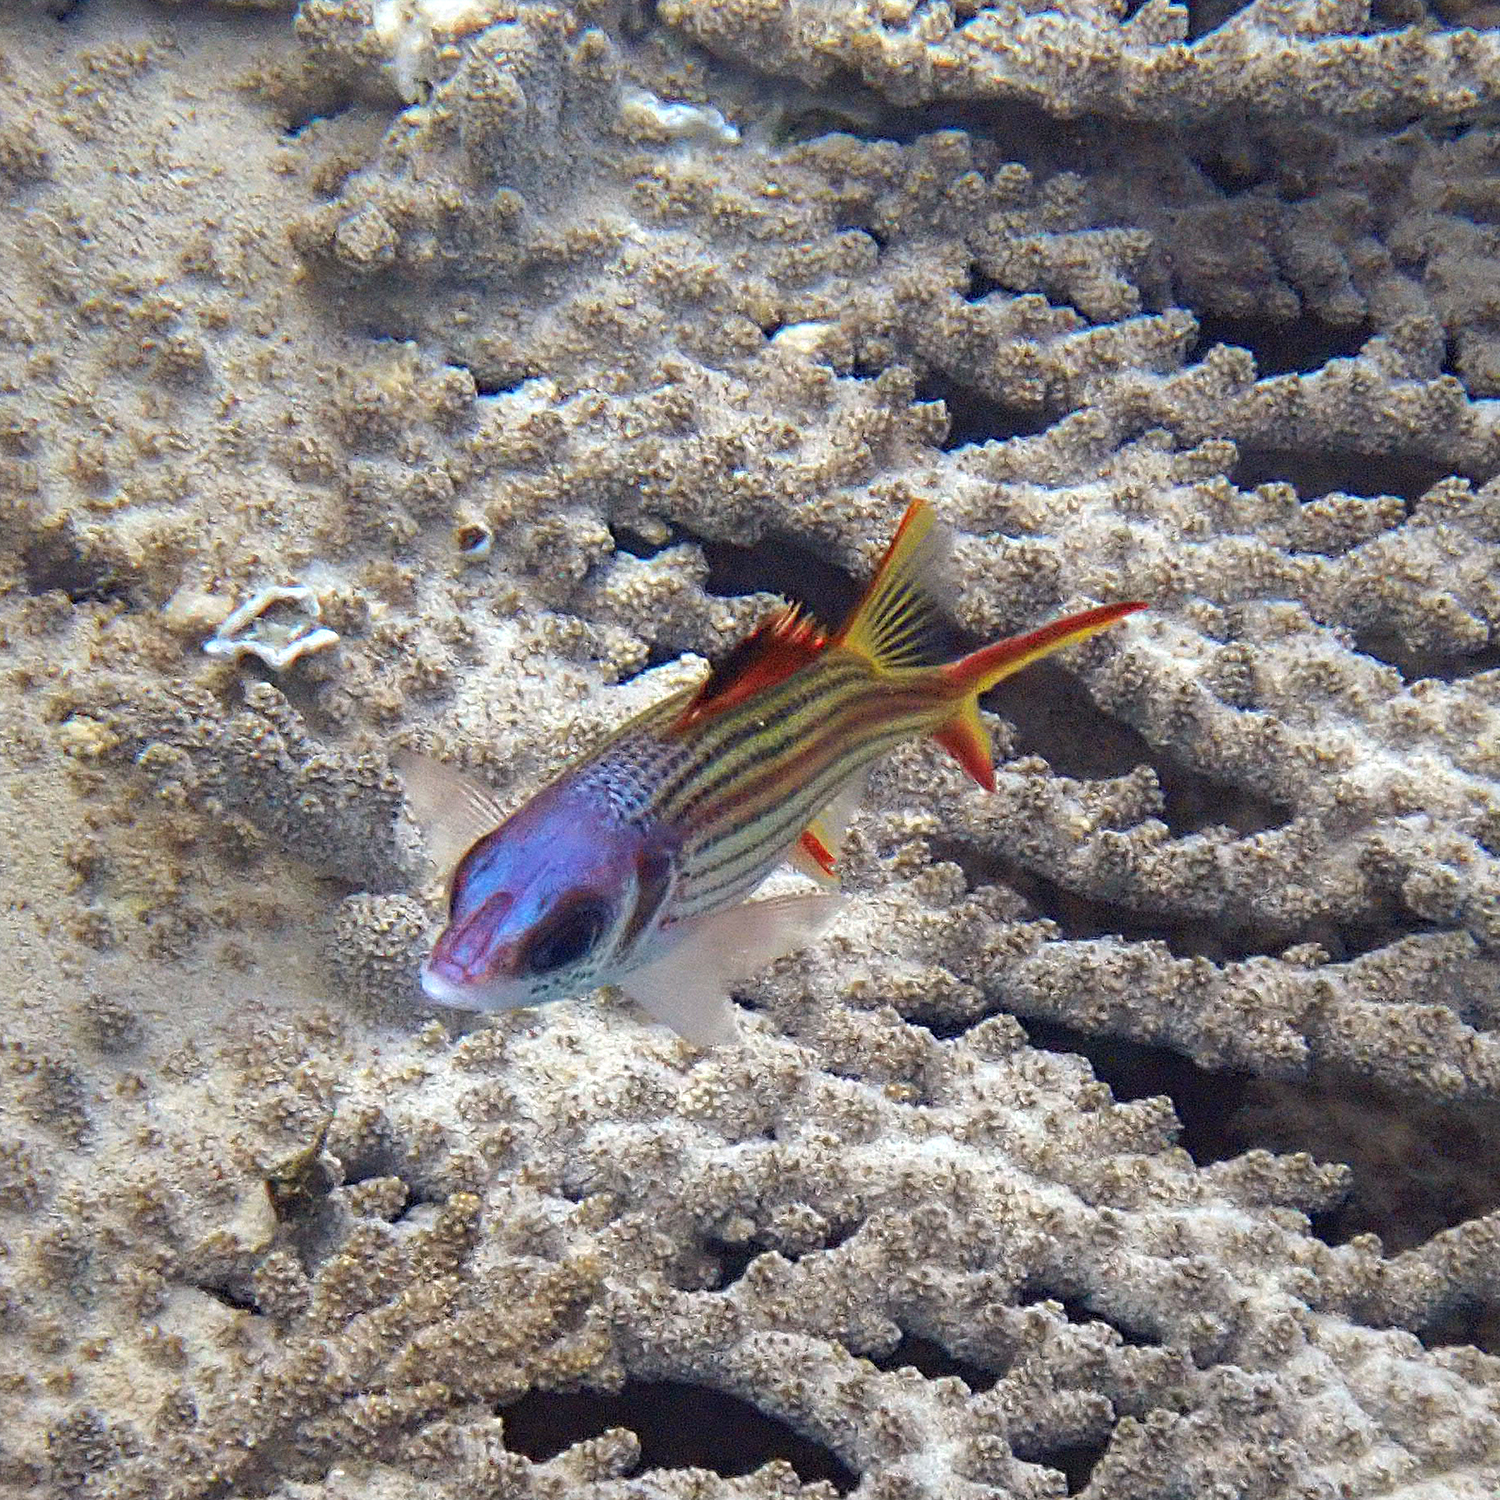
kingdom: Animalia
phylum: Chordata
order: Beryciformes
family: Holocentridae
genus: Neoniphon
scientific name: Neoniphon sammara
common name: Sammara squirrelfish
